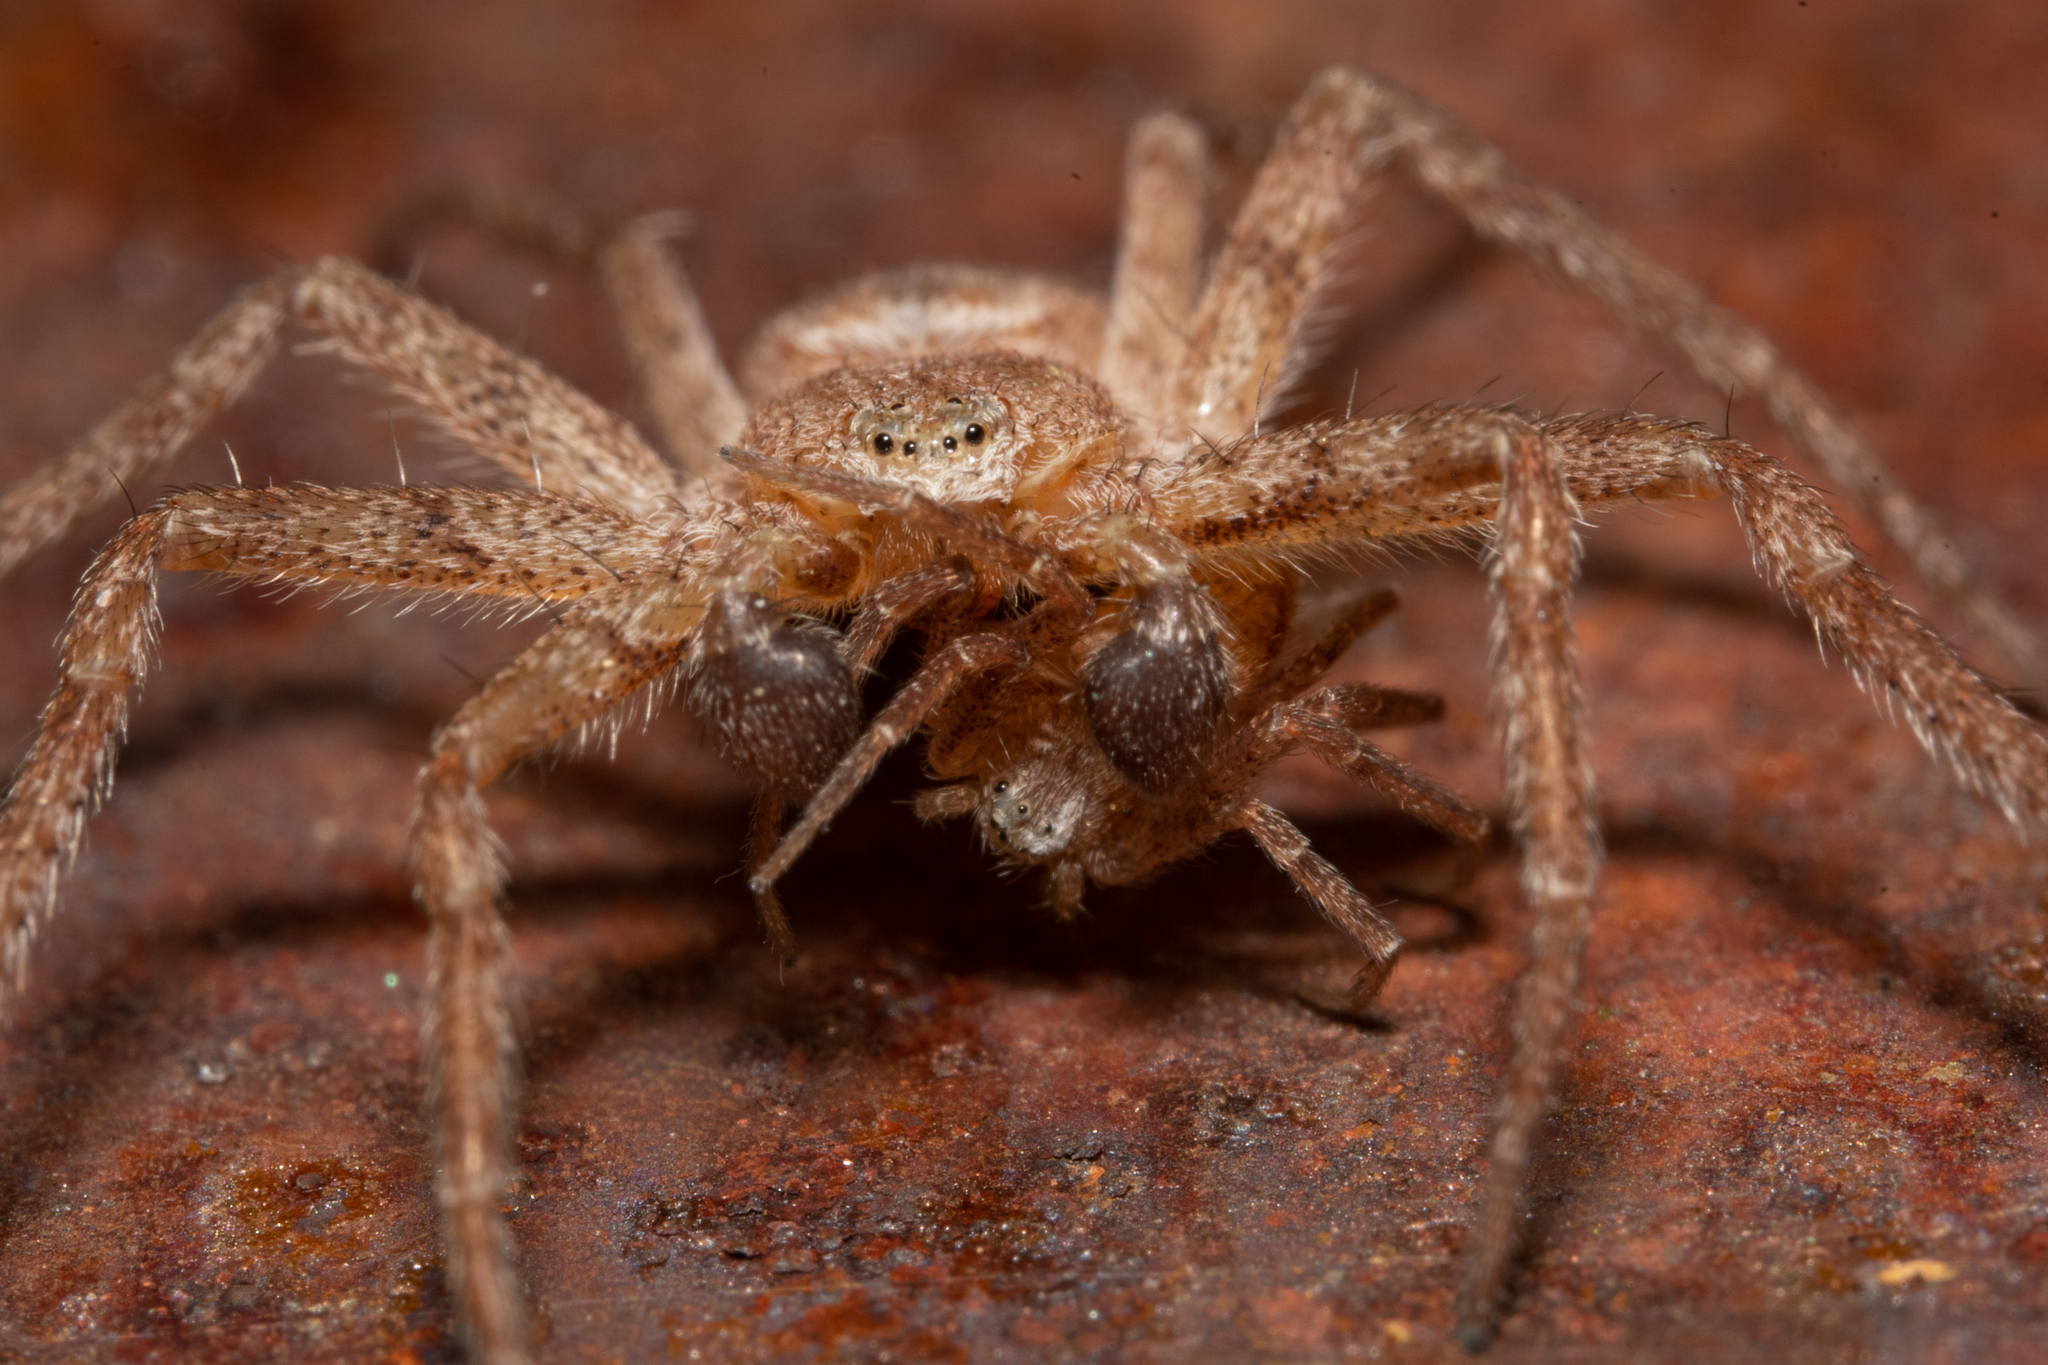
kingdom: Animalia
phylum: Arthropoda
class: Arachnida
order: Araneae
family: Philodromidae
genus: Philodromus
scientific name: Philodromus fuscomarginatus
